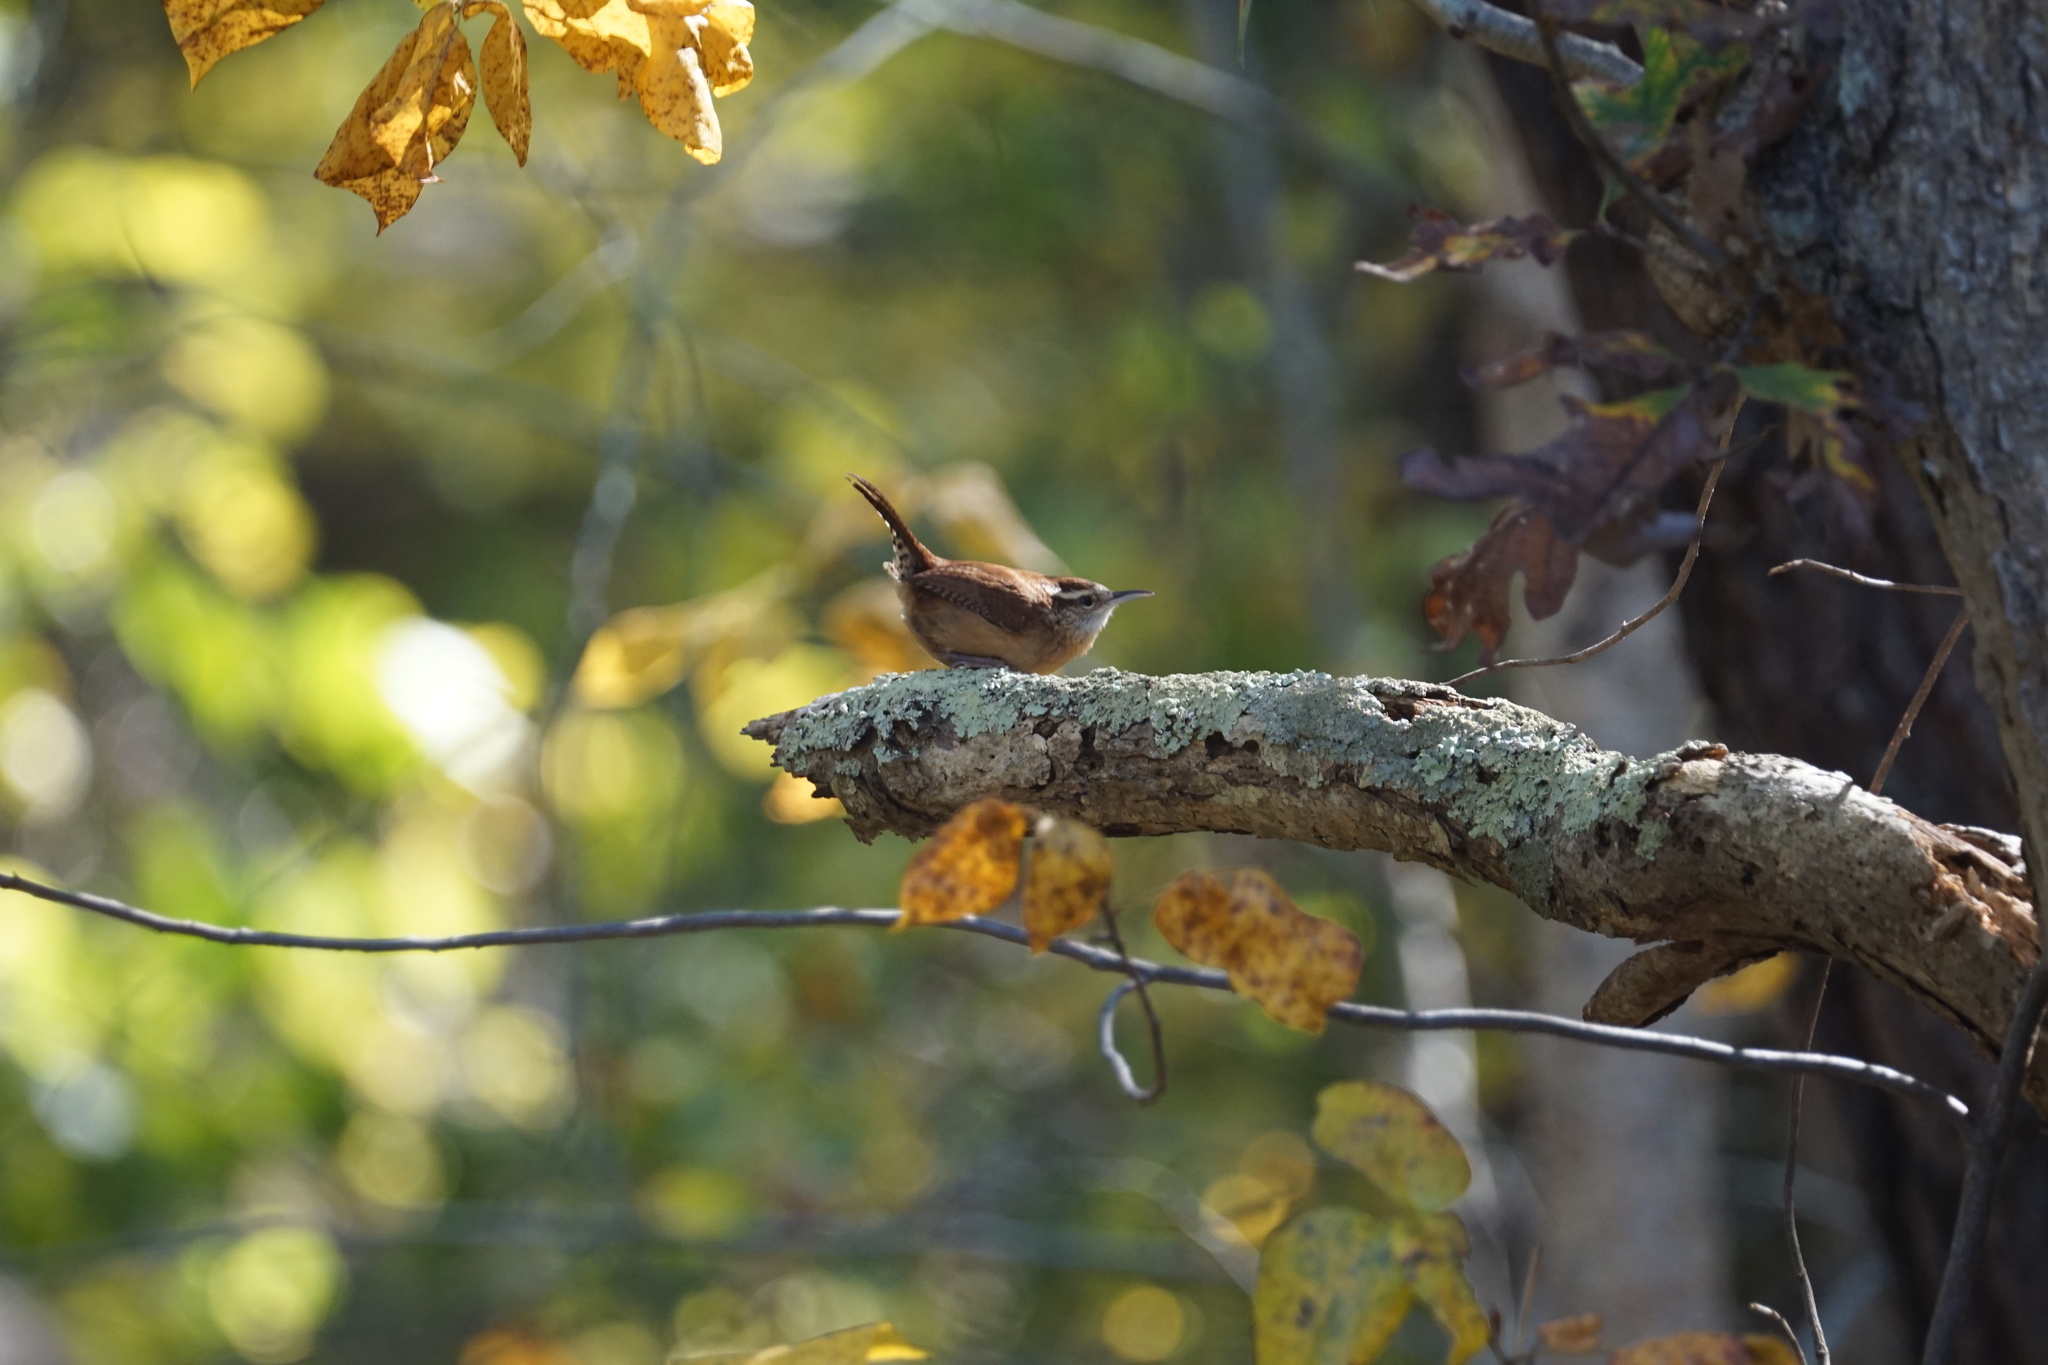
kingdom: Animalia
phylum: Chordata
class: Aves
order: Passeriformes
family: Troglodytidae
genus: Thryothorus
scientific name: Thryothorus ludovicianus
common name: Carolina wren
